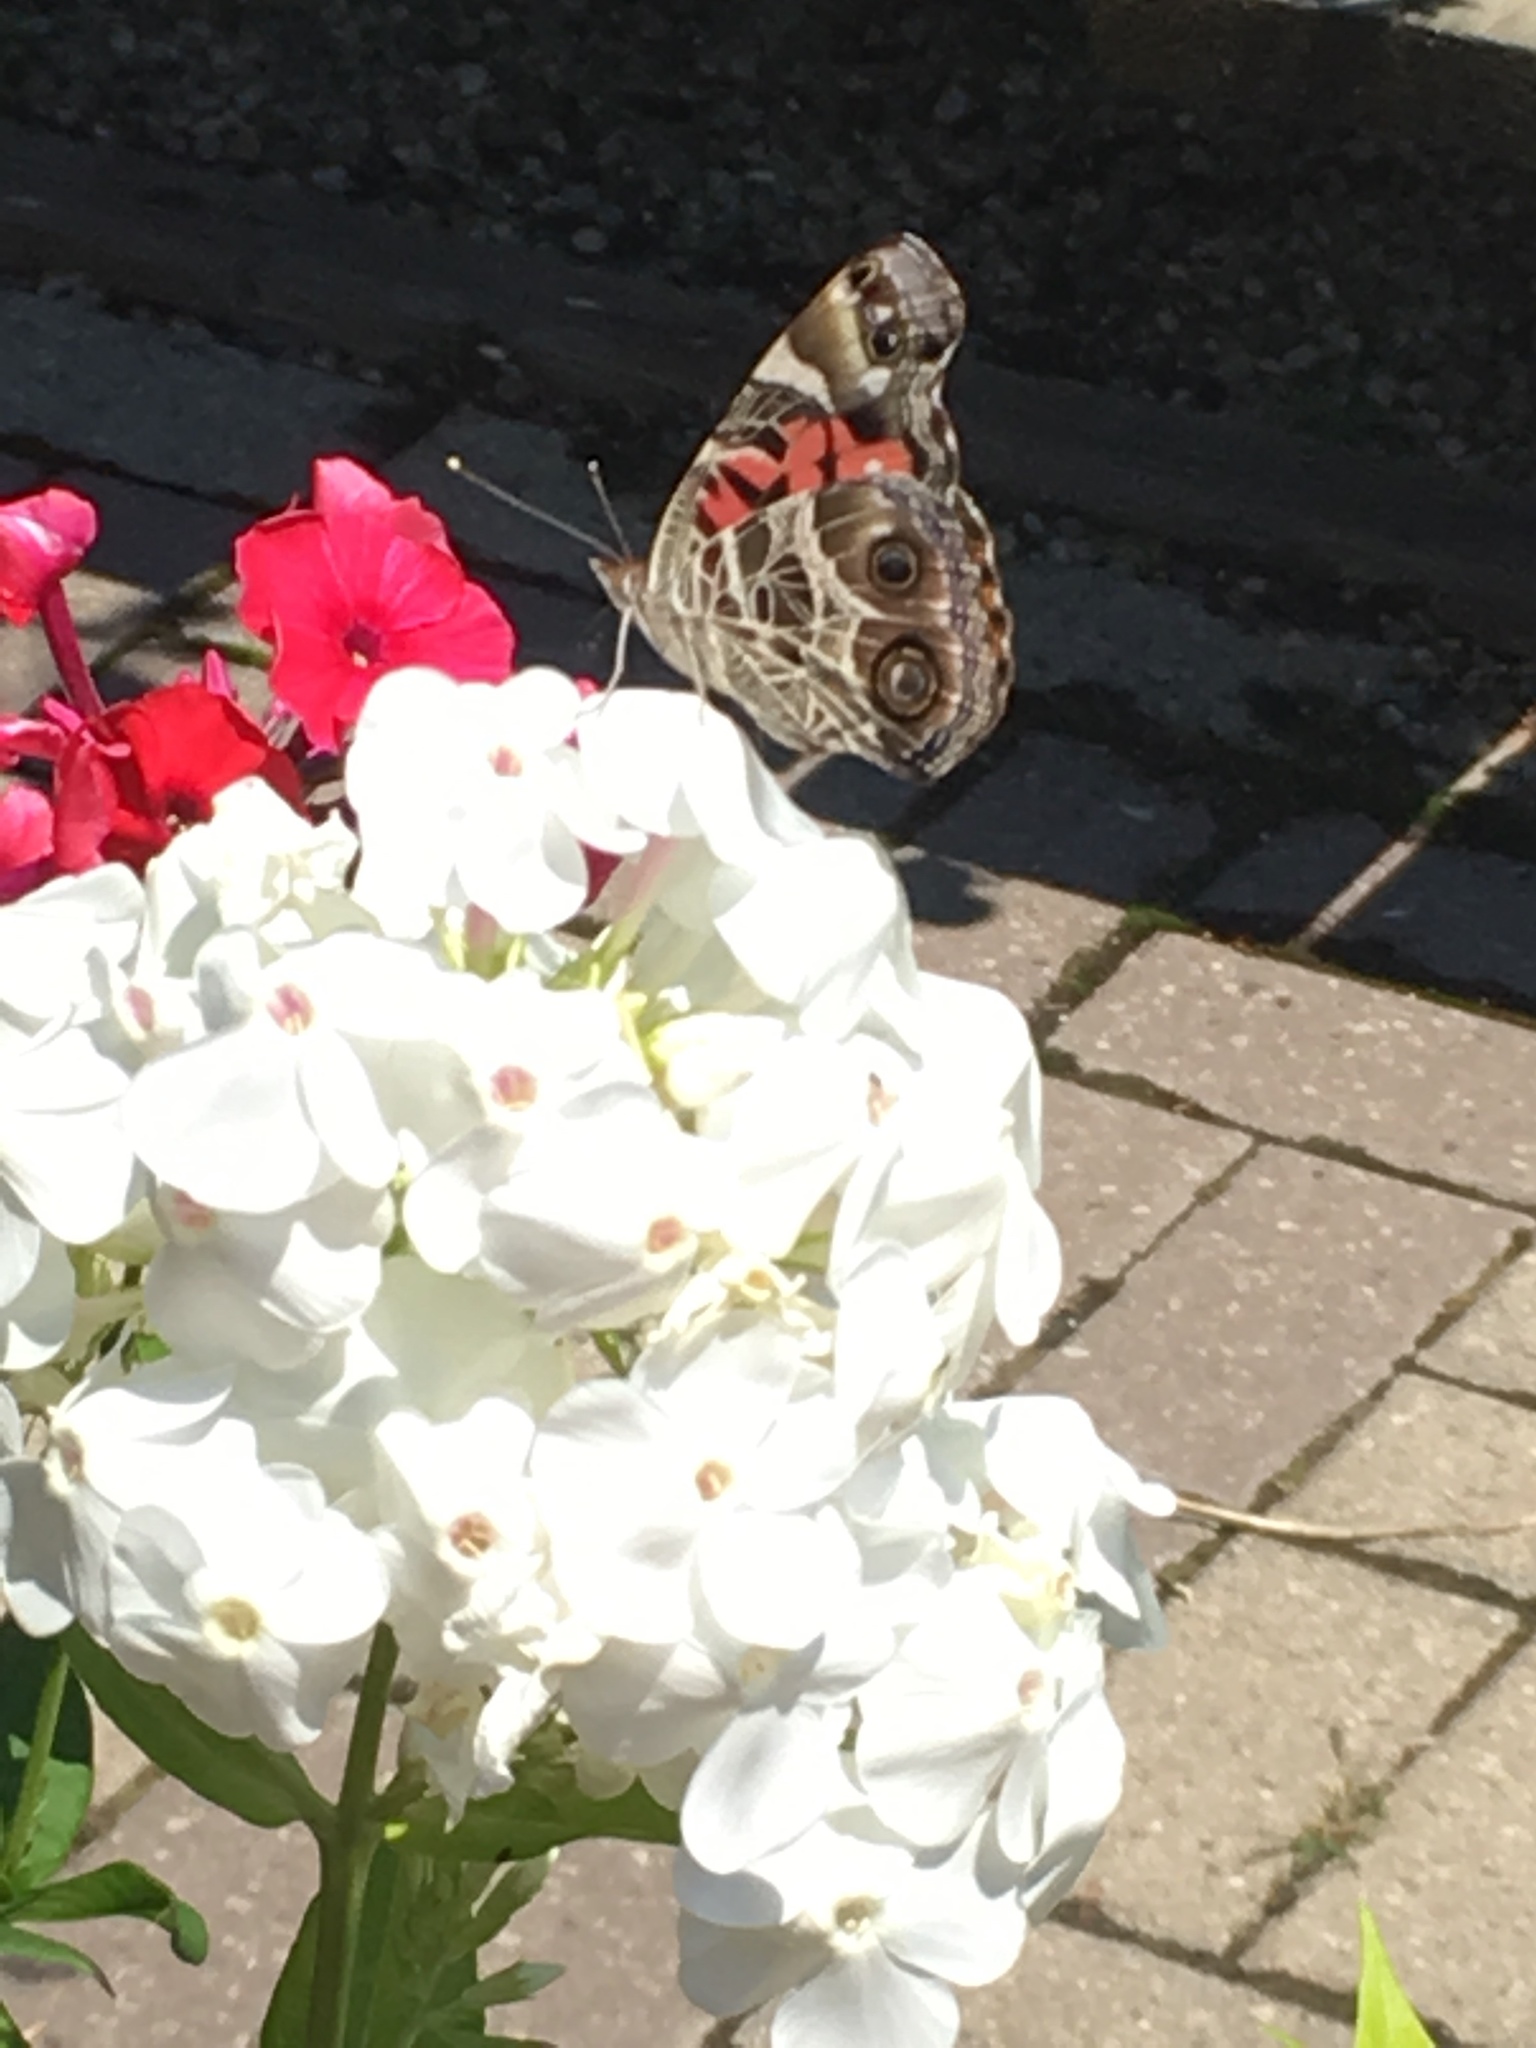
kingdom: Animalia
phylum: Arthropoda
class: Insecta
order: Lepidoptera
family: Nymphalidae
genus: Vanessa
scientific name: Vanessa virginiensis
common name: American lady
